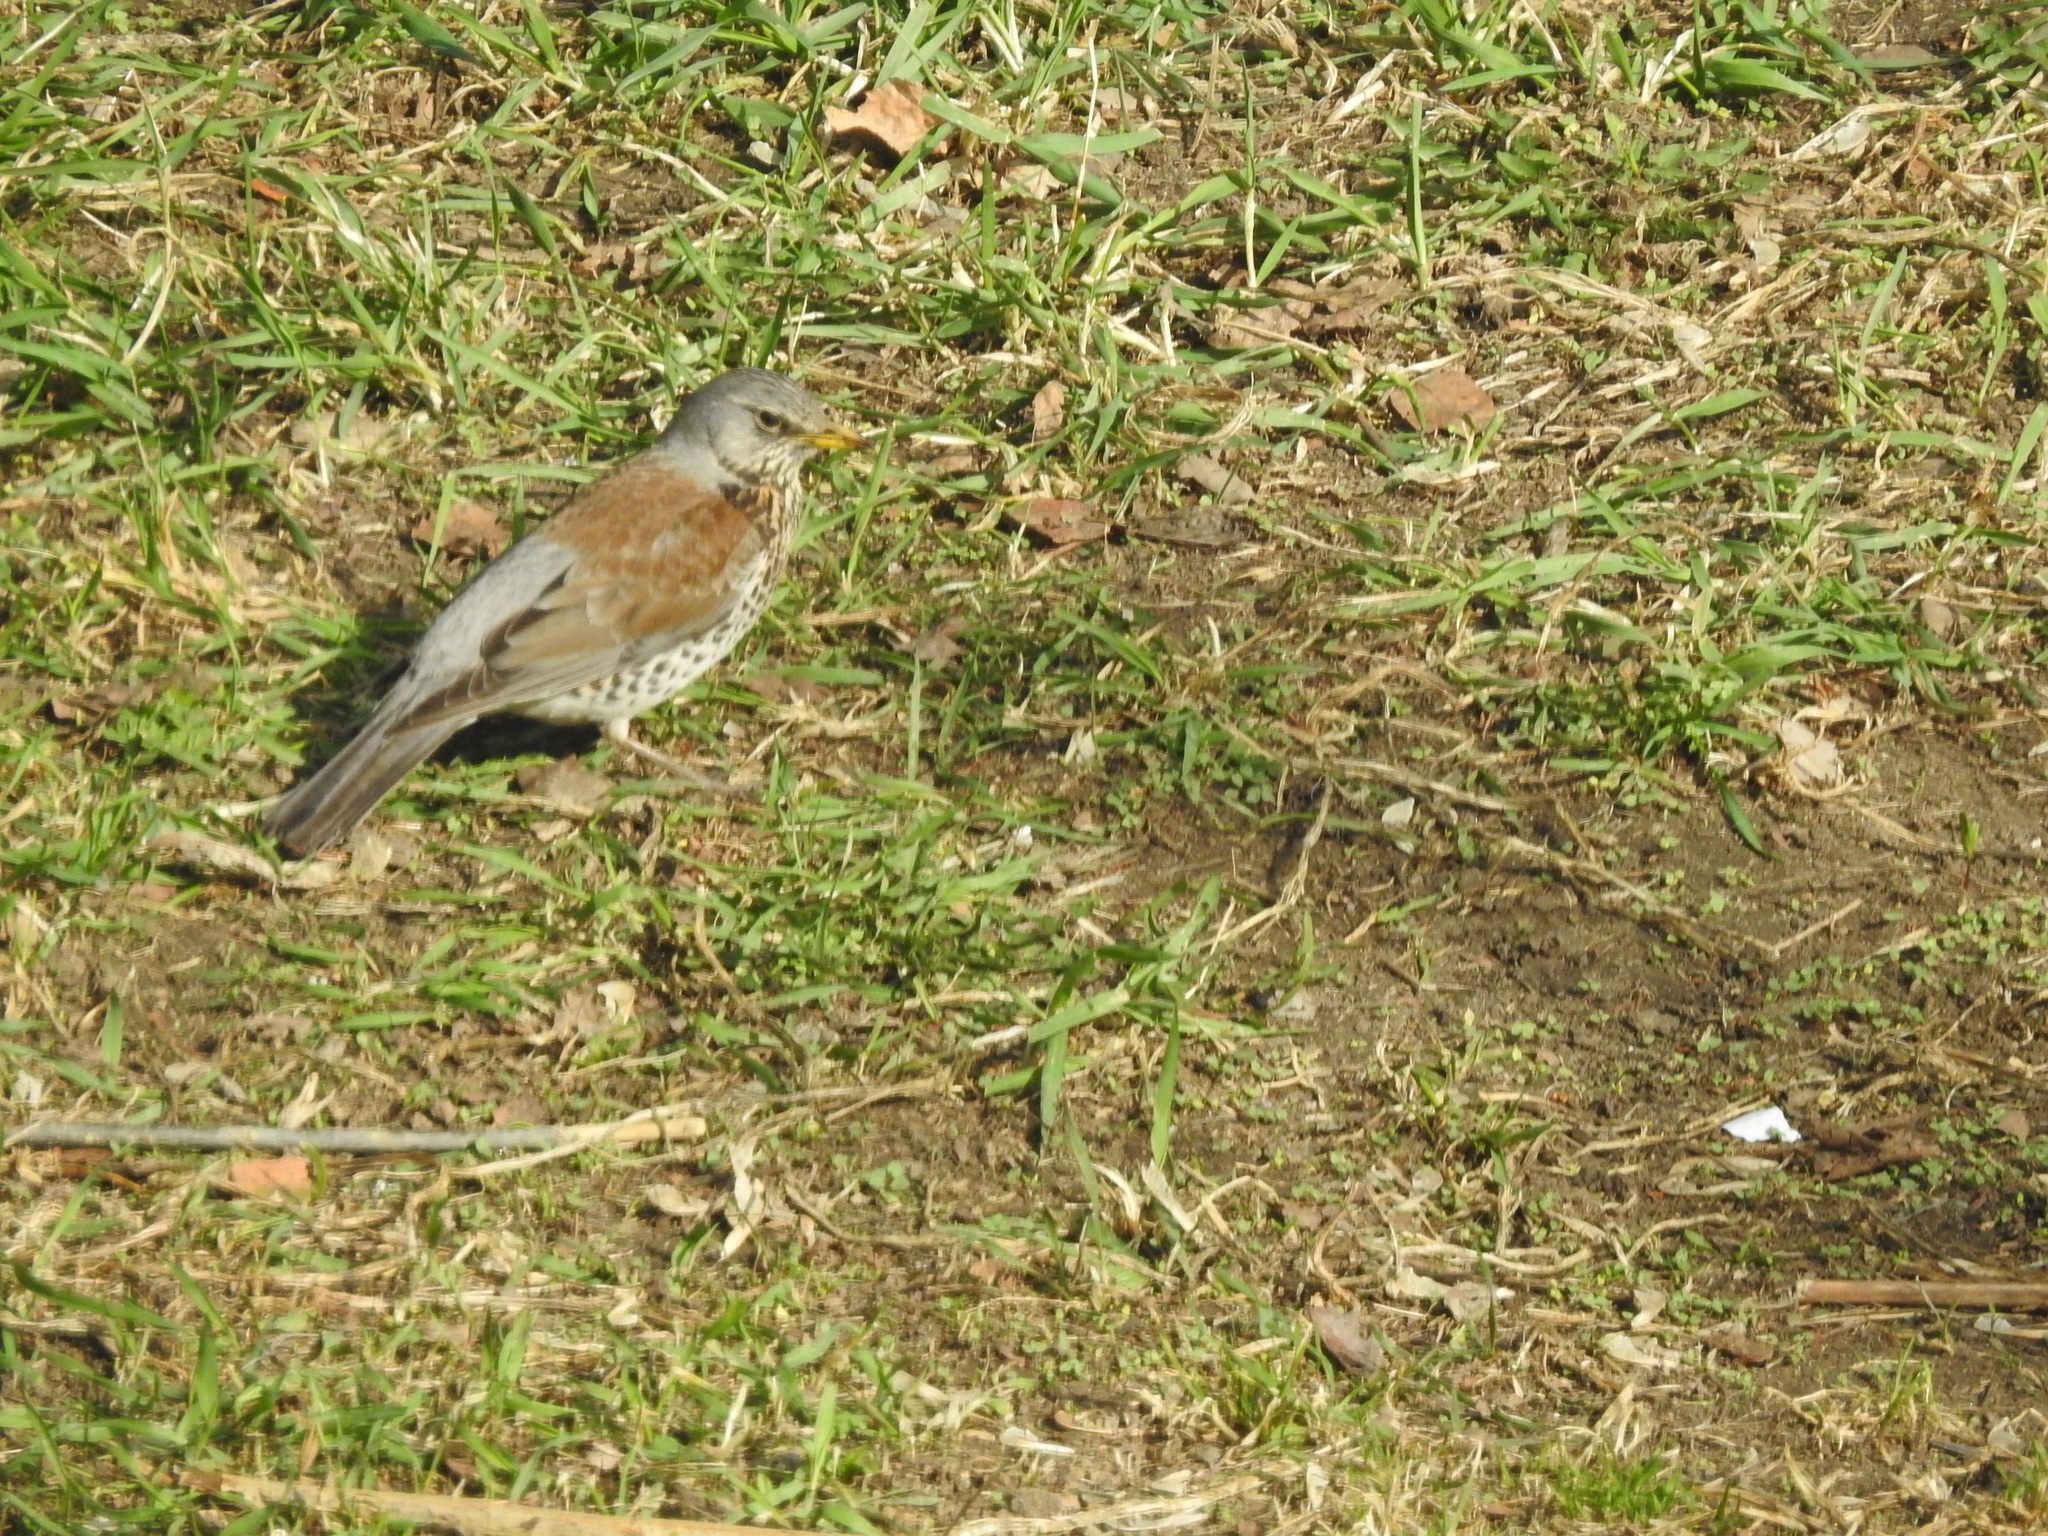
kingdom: Animalia
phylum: Chordata
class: Aves
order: Passeriformes
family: Turdidae
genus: Turdus
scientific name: Turdus pilaris
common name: Fieldfare
